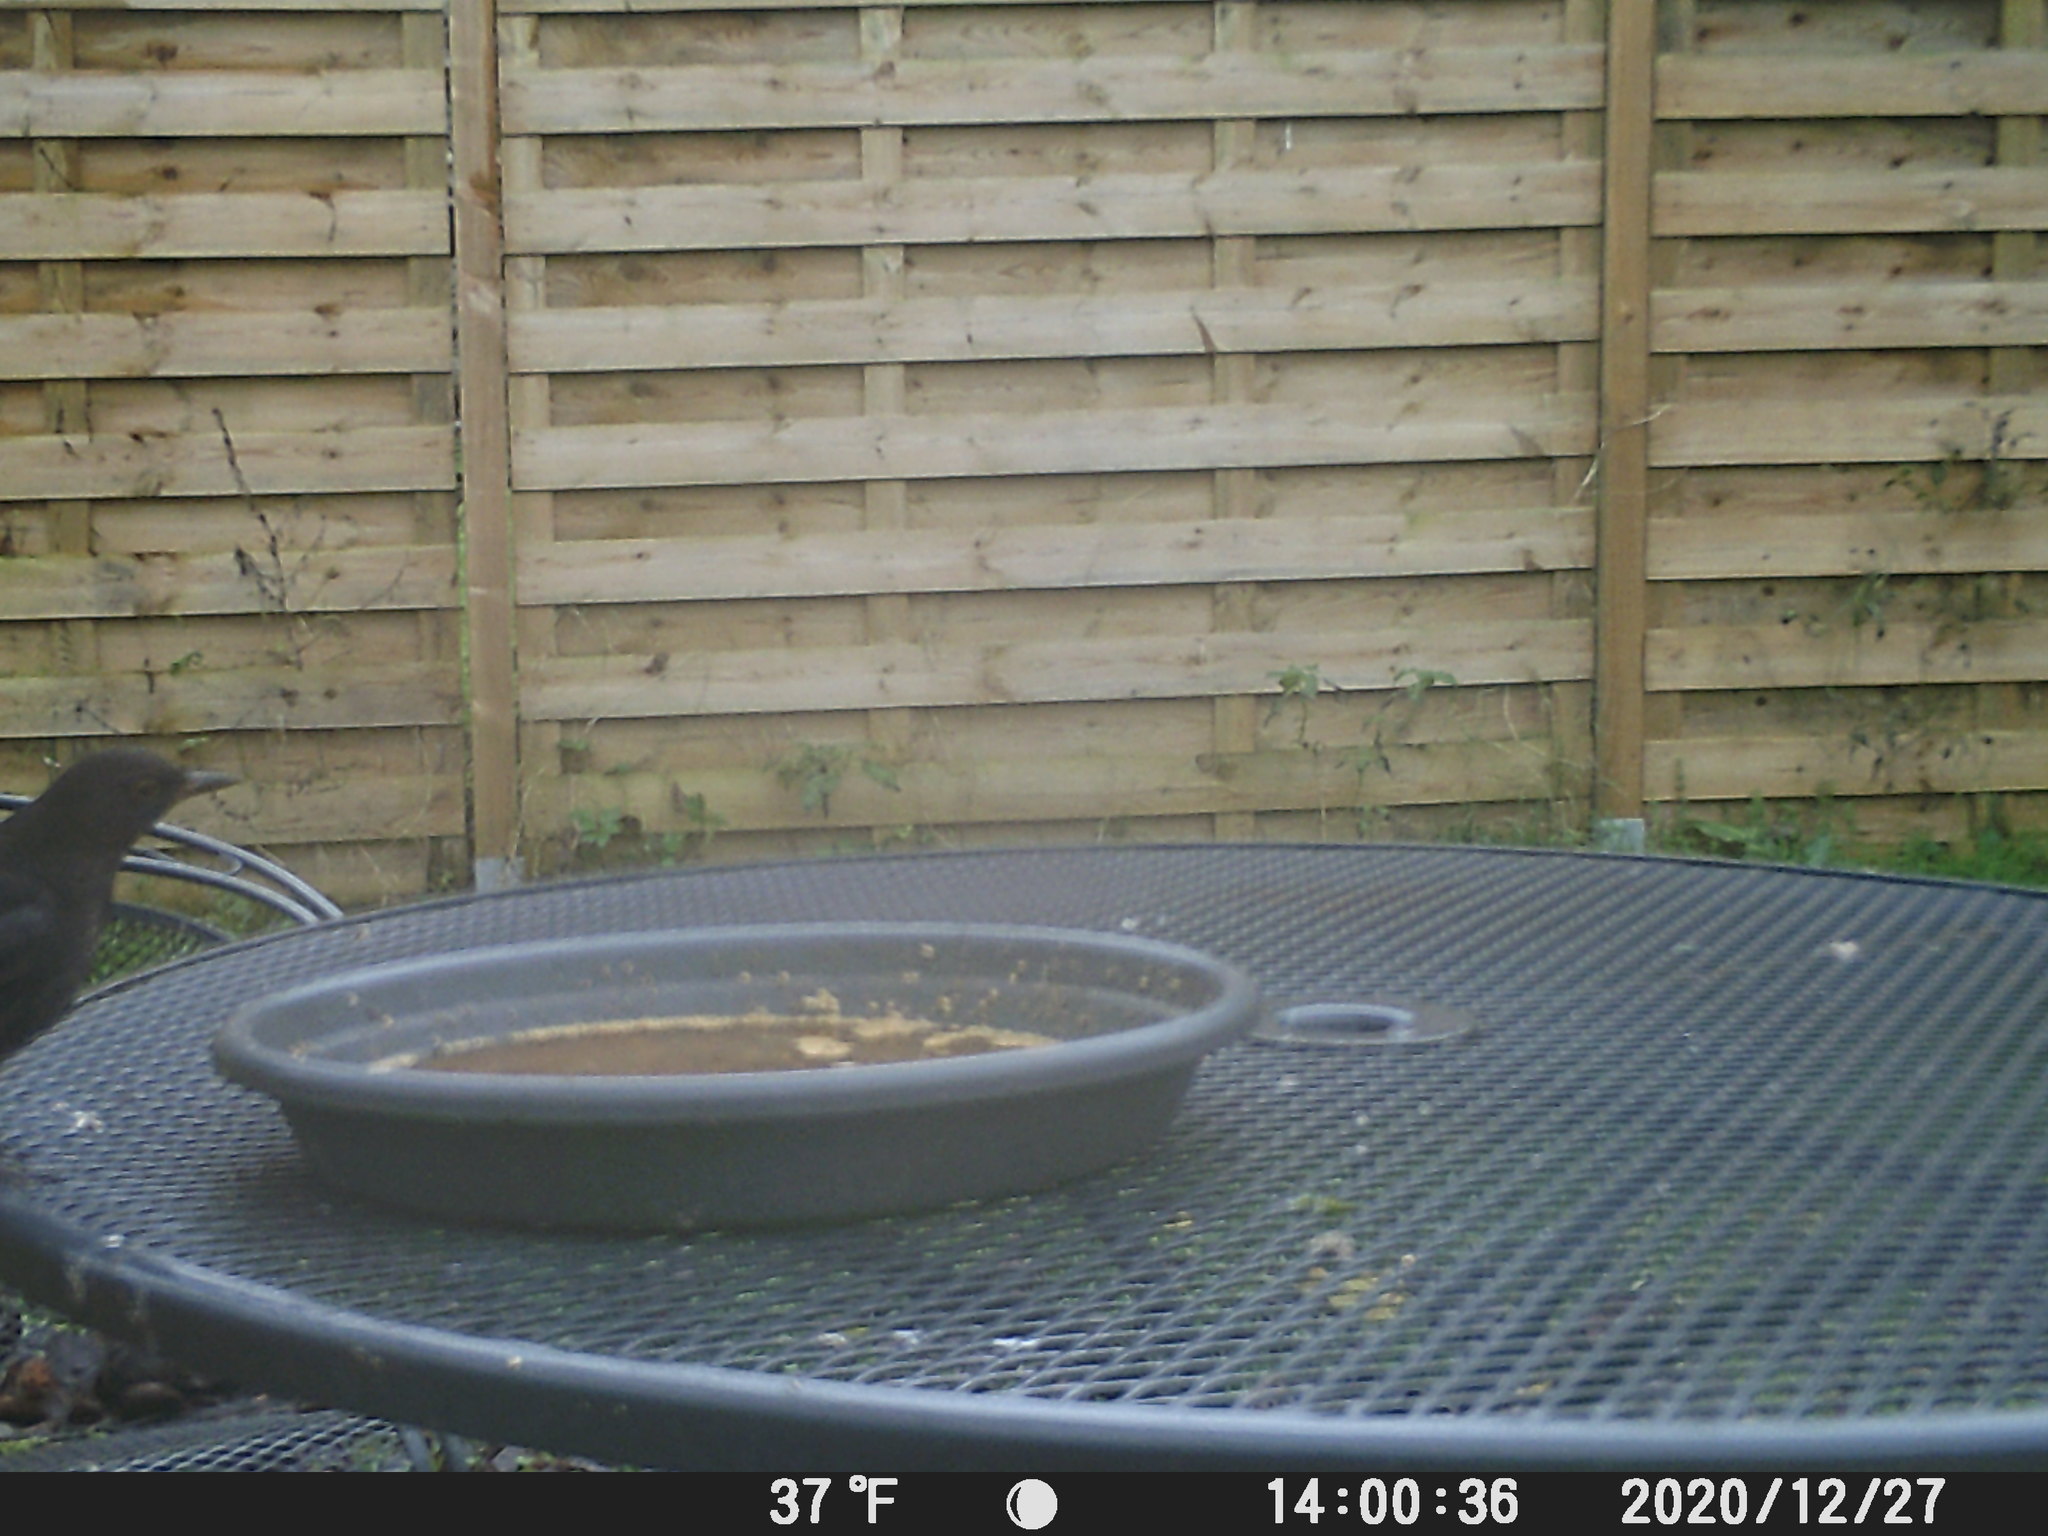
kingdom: Animalia
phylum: Chordata
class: Aves
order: Passeriformes
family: Turdidae
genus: Turdus
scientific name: Turdus merula
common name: Common blackbird
